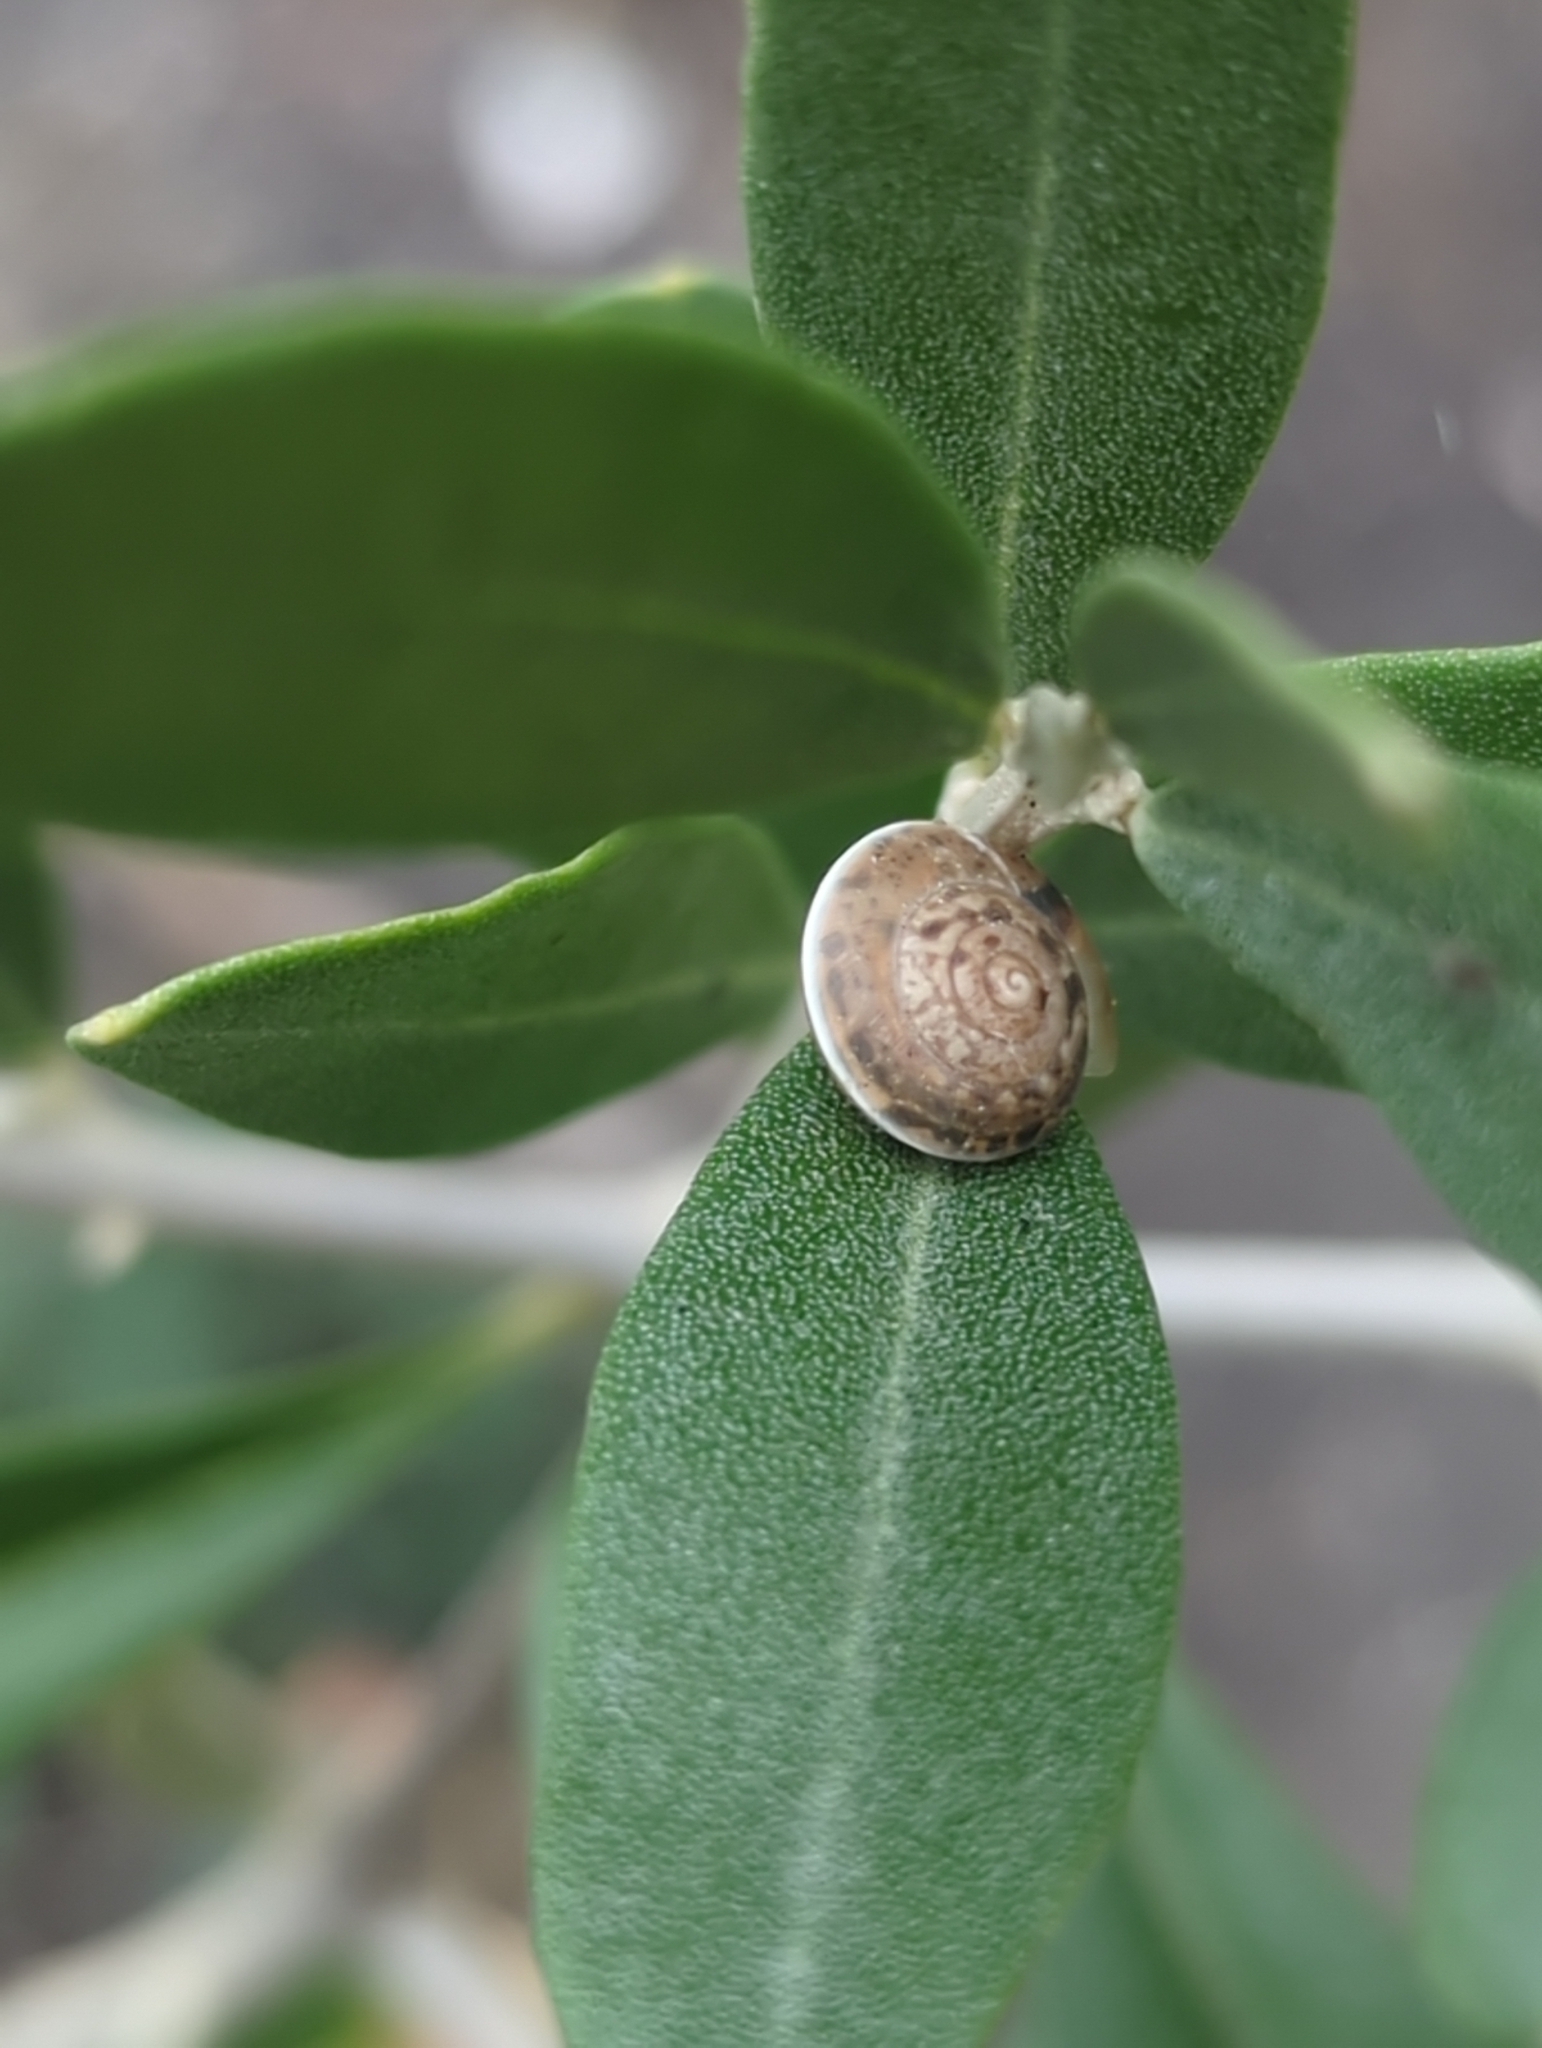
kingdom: Animalia
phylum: Mollusca
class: Gastropoda
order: Stylommatophora
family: Hygromiidae
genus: Hygromia
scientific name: Hygromia cinctella
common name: Girdled snail
